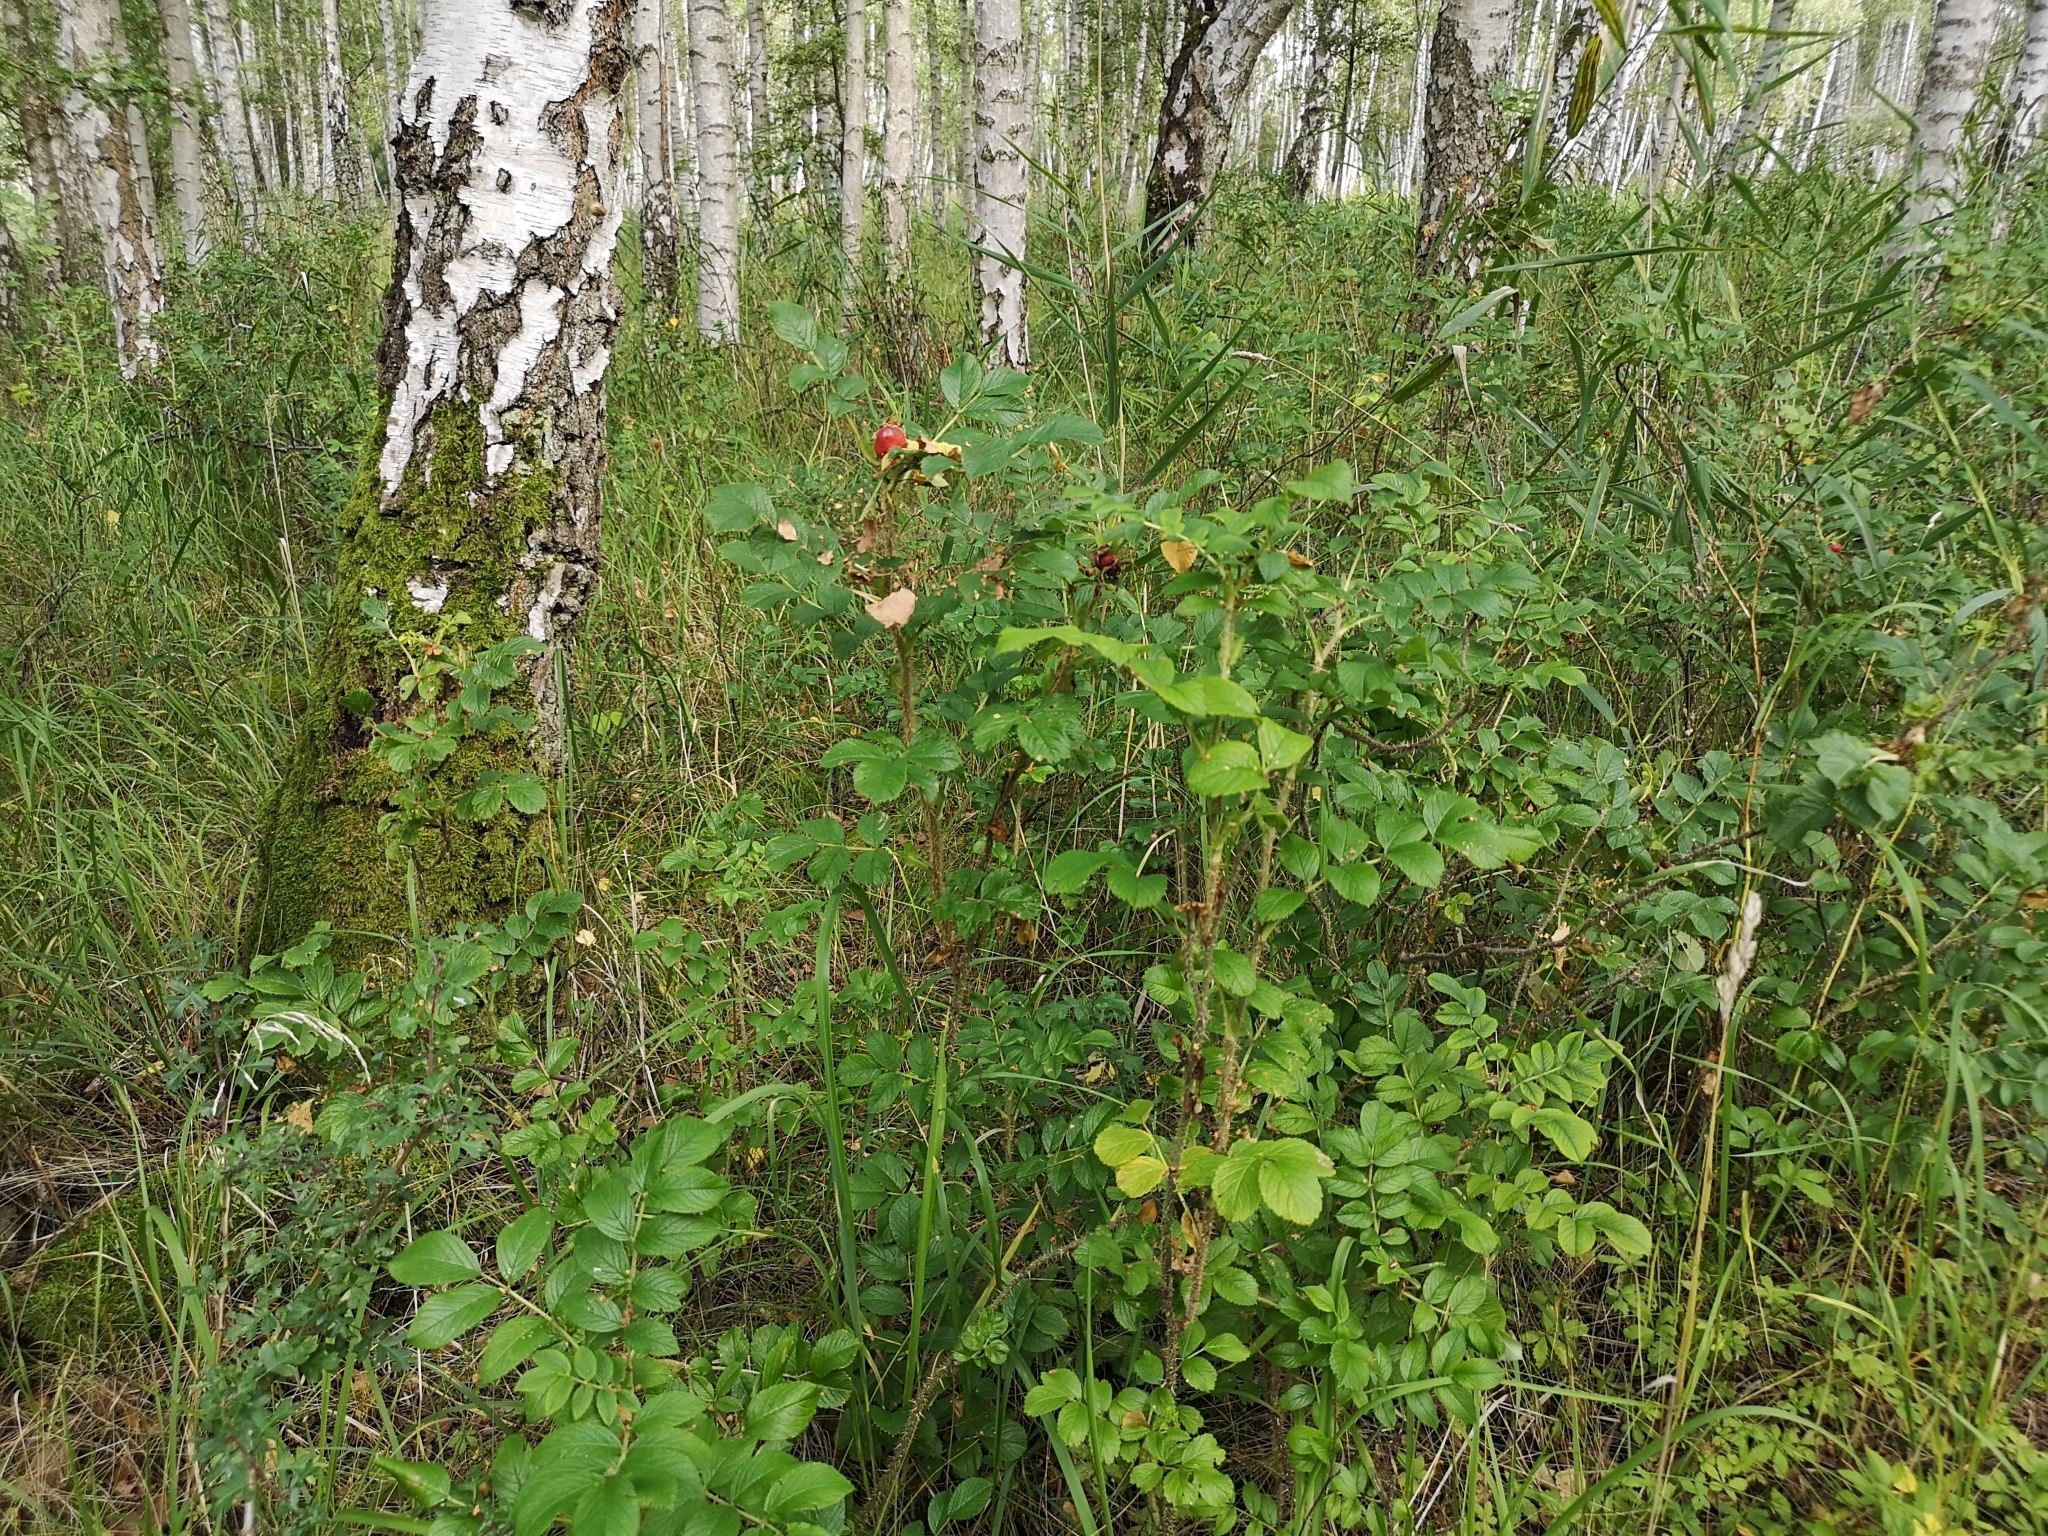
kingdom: Plantae
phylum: Tracheophyta
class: Magnoliopsida
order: Rosales
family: Rosaceae
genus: Rosa
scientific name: Rosa rugosa
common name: Japanese rose
